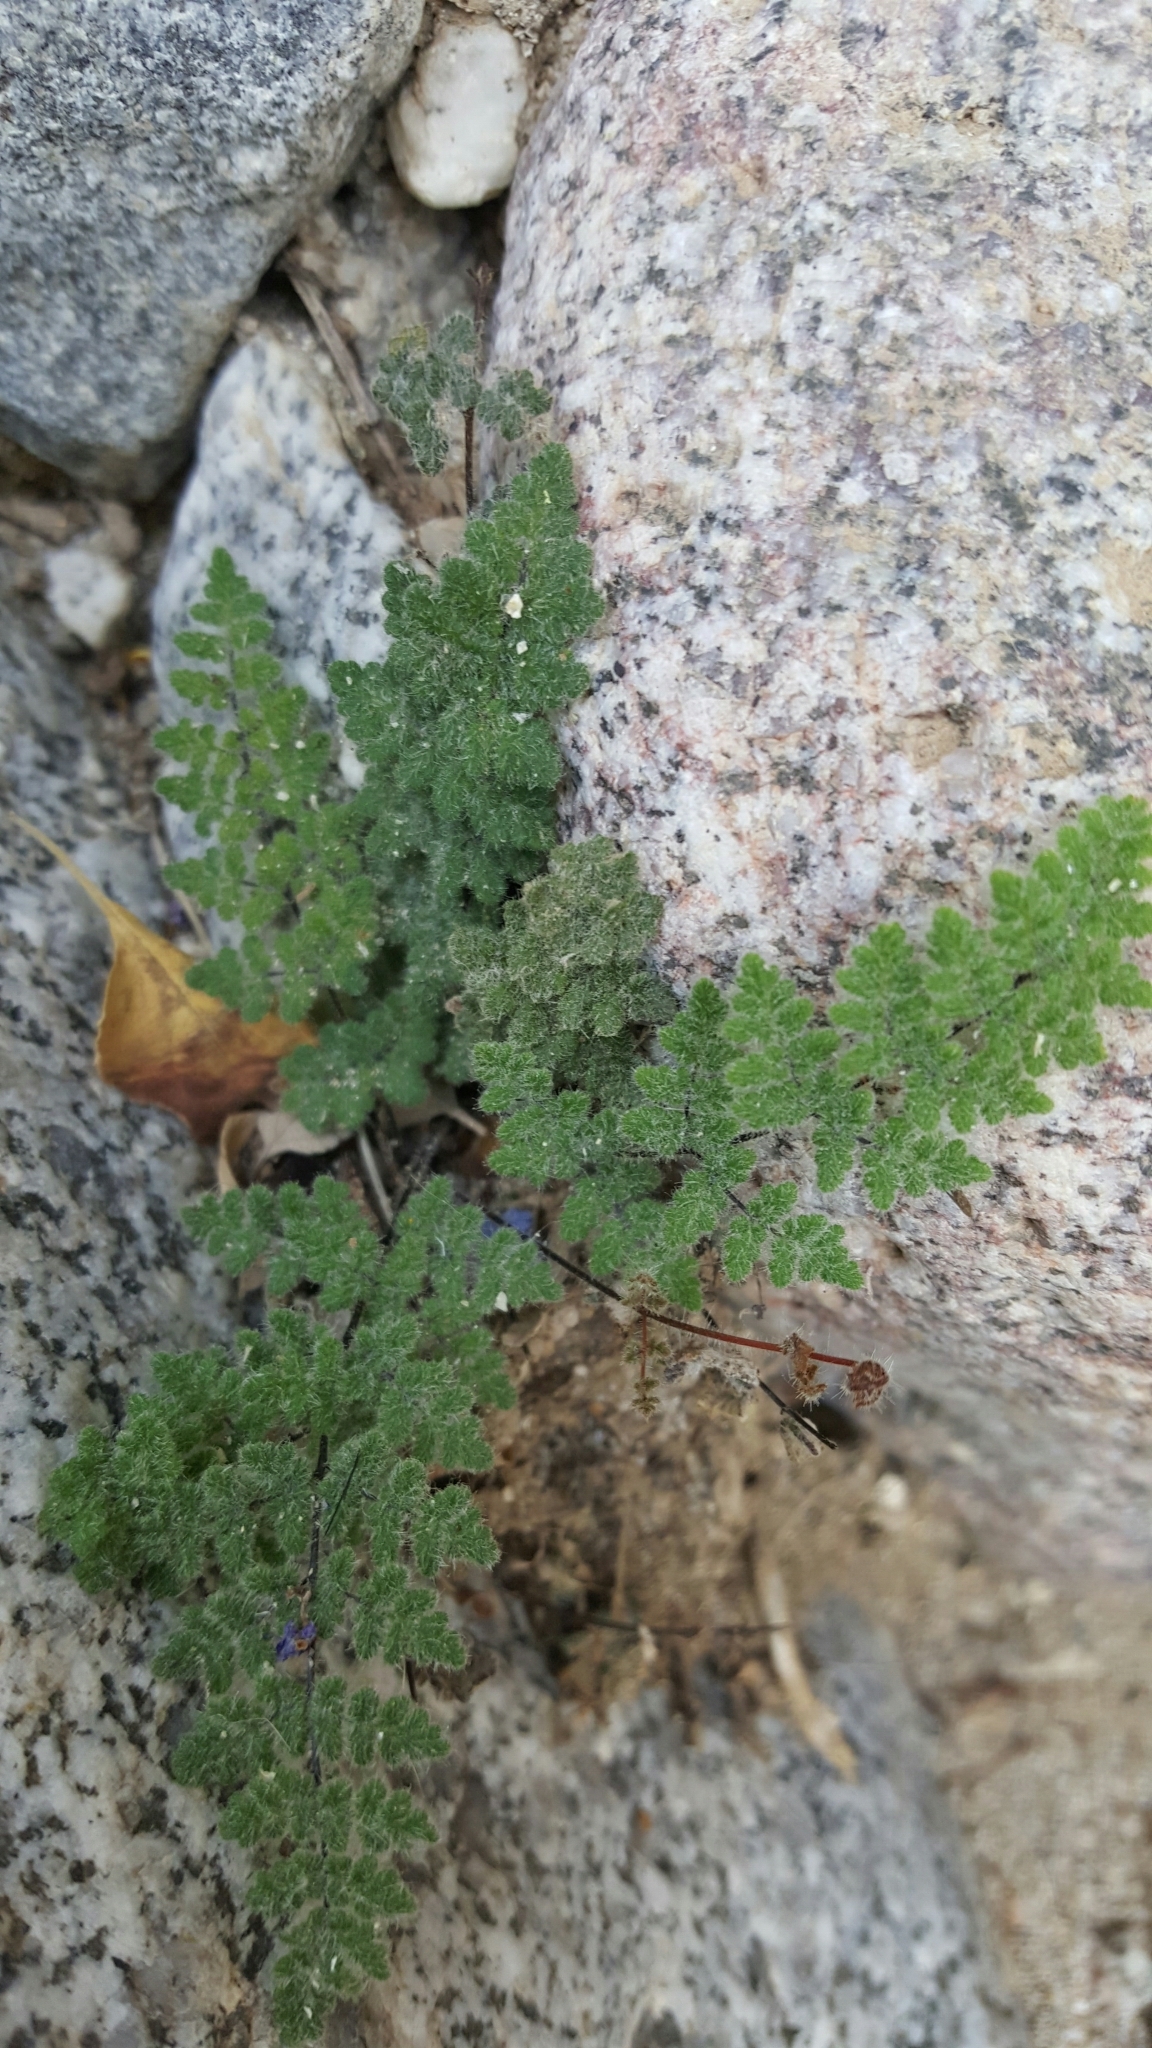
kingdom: Plantae
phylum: Tracheophyta
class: Polypodiopsida
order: Polypodiales
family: Pteridaceae
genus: Myriopteris
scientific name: Myriopteris parryi
